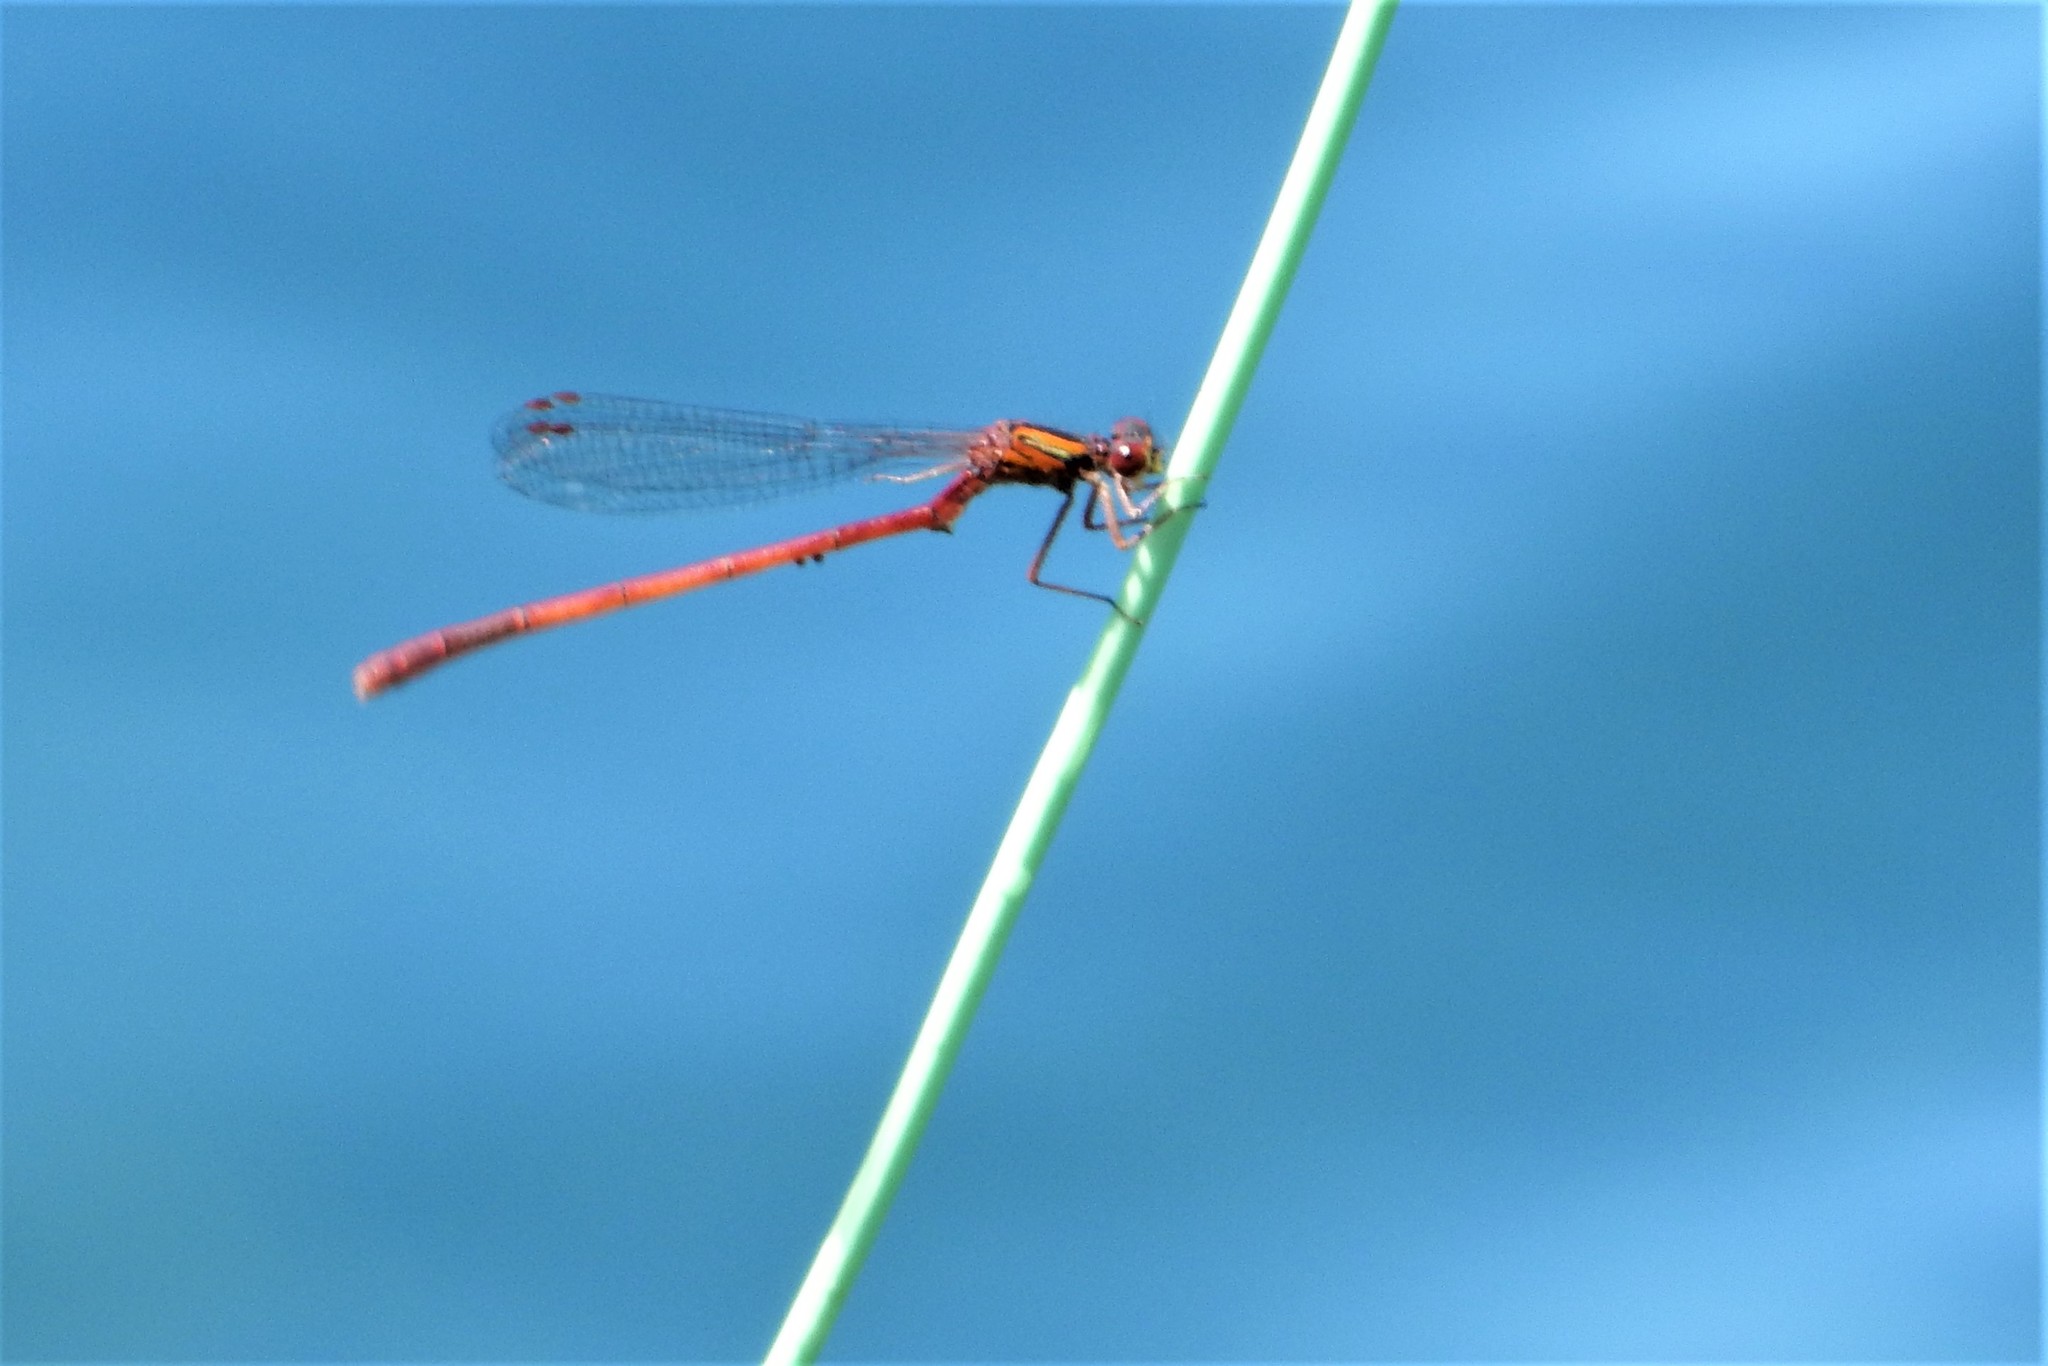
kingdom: Animalia
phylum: Arthropoda
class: Insecta
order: Odonata
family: Coenagrionidae
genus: Xanthocnemis
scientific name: Xanthocnemis zealandica
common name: Common redcoat damselfly
